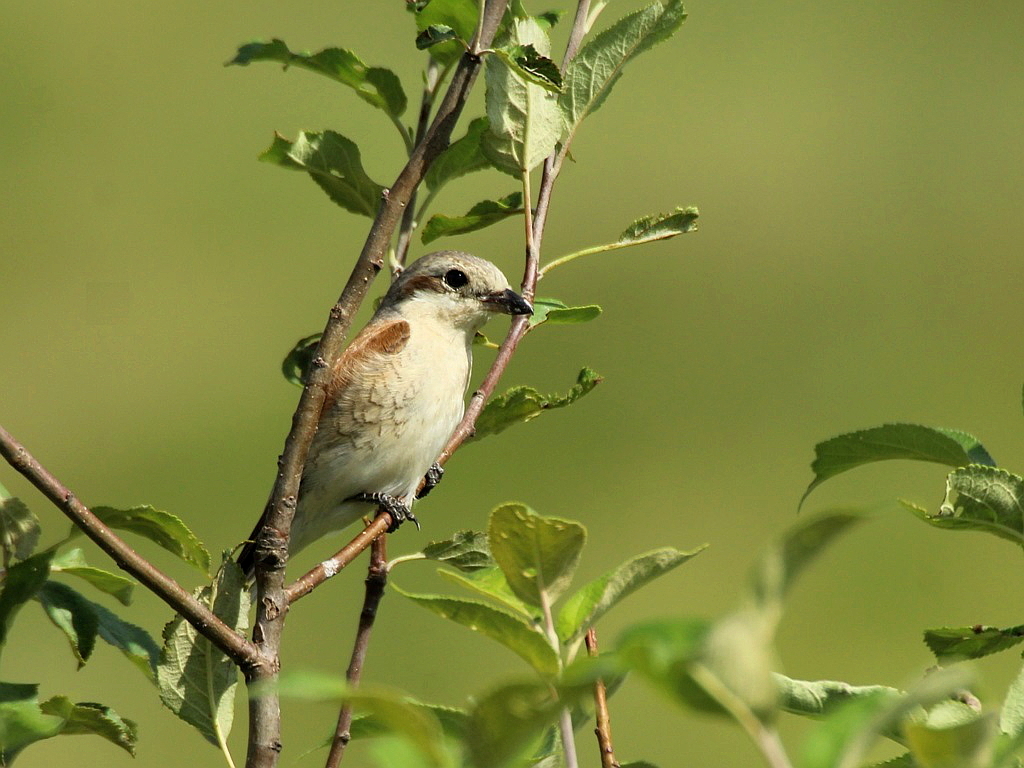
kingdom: Animalia
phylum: Chordata
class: Aves
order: Passeriformes
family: Laniidae
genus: Lanius
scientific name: Lanius collurio
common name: Red-backed shrike
